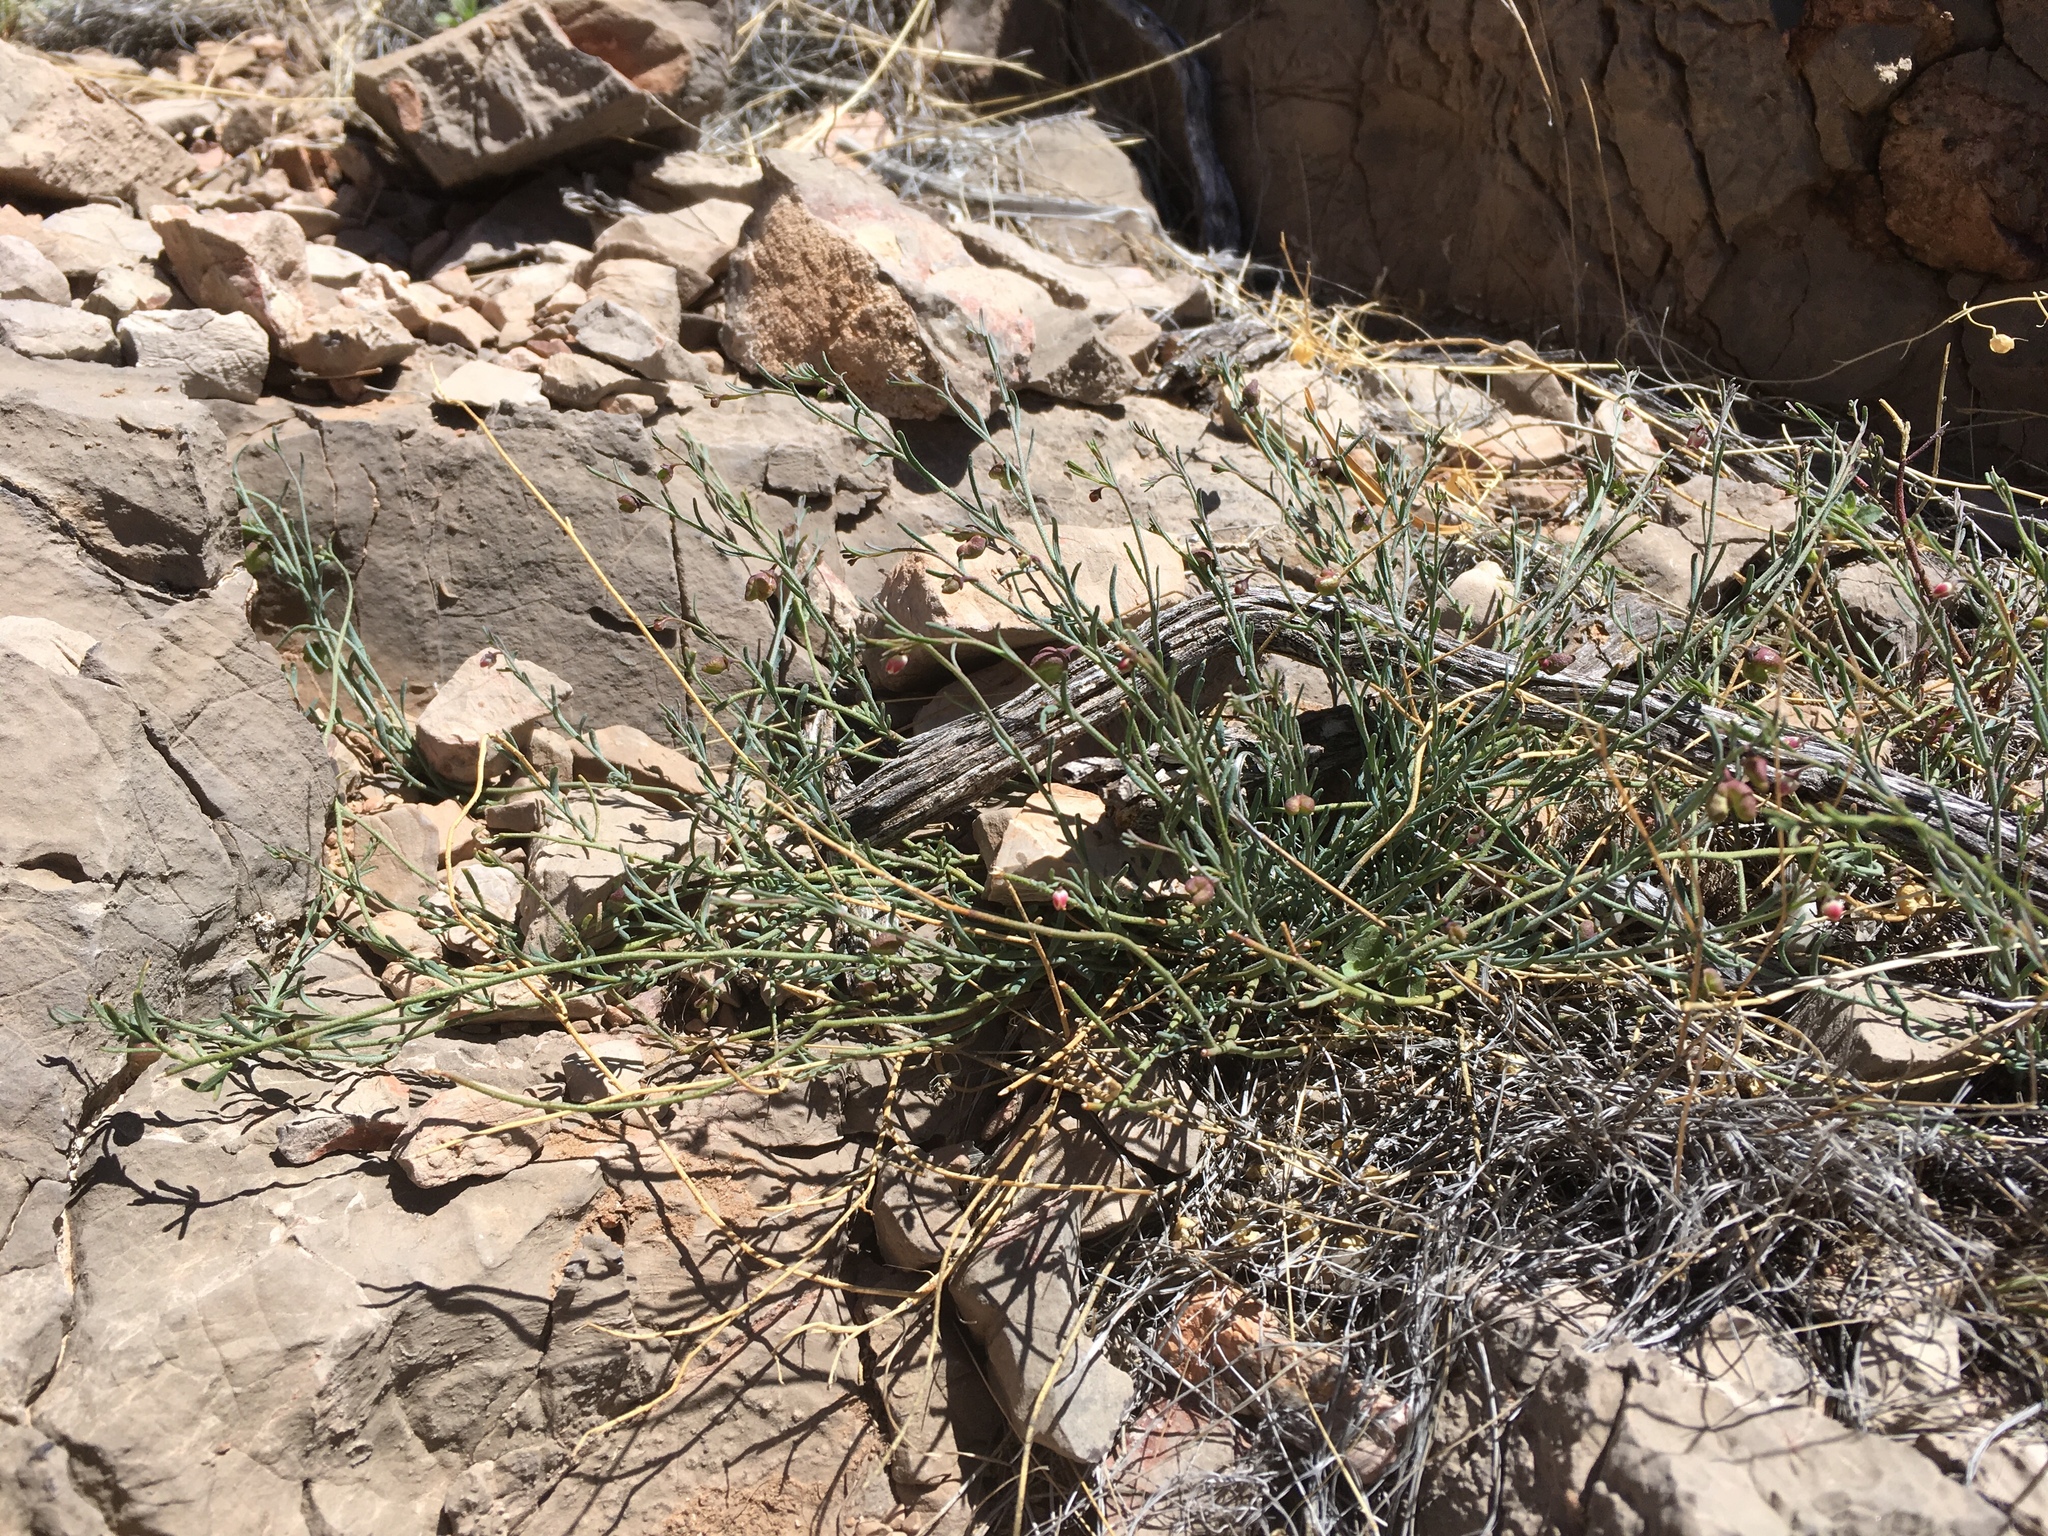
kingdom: Plantae
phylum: Tracheophyta
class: Magnoliopsida
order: Sapindales
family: Rutaceae
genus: Thamnosma
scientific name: Thamnosma texana
